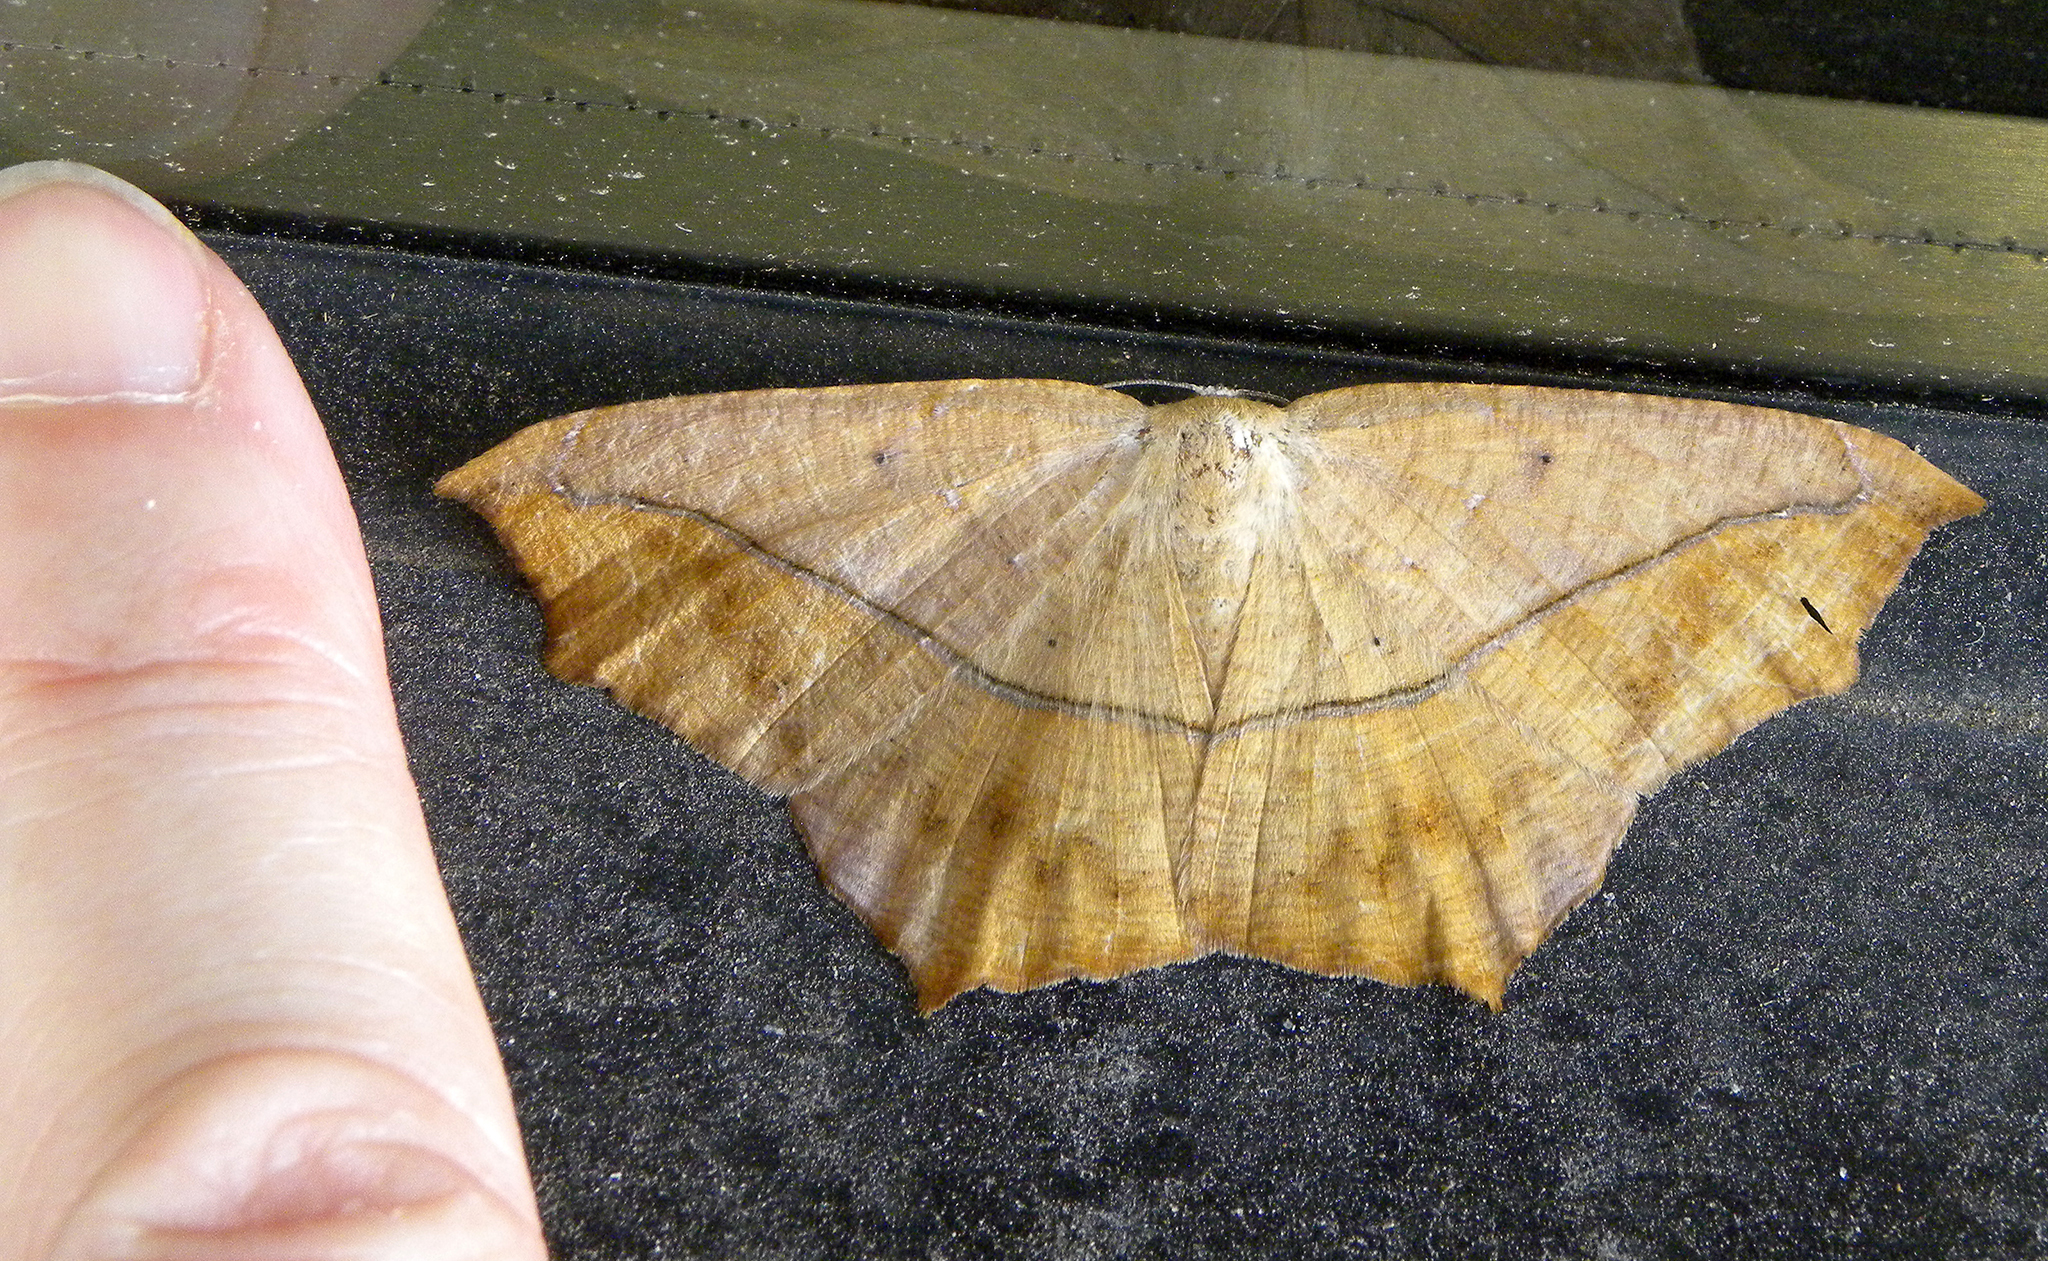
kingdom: Animalia
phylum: Arthropoda
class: Insecta
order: Lepidoptera
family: Geometridae
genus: Prochoerodes
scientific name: Prochoerodes lineola
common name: Large maple spanworm
